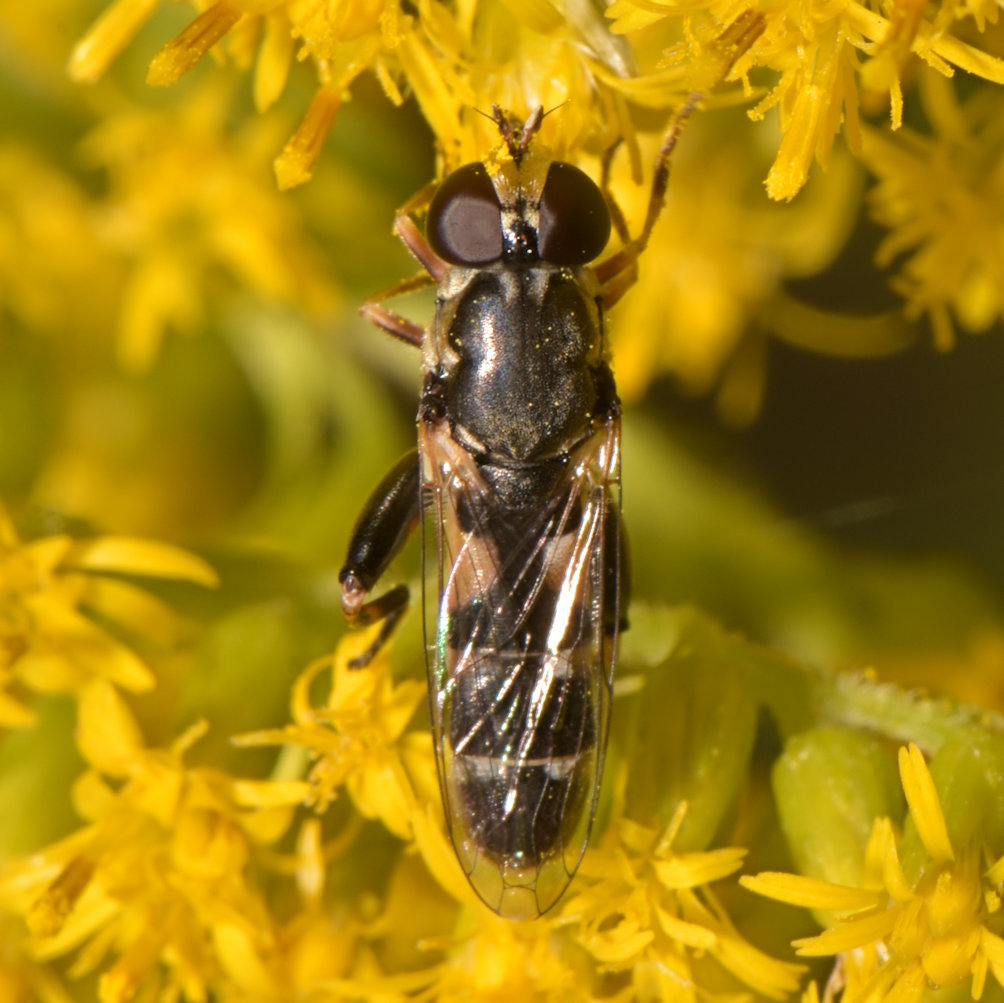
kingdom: Animalia
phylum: Arthropoda
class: Insecta
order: Diptera
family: Syrphidae
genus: Syritta
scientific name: Syritta pipiens
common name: Hover fly
